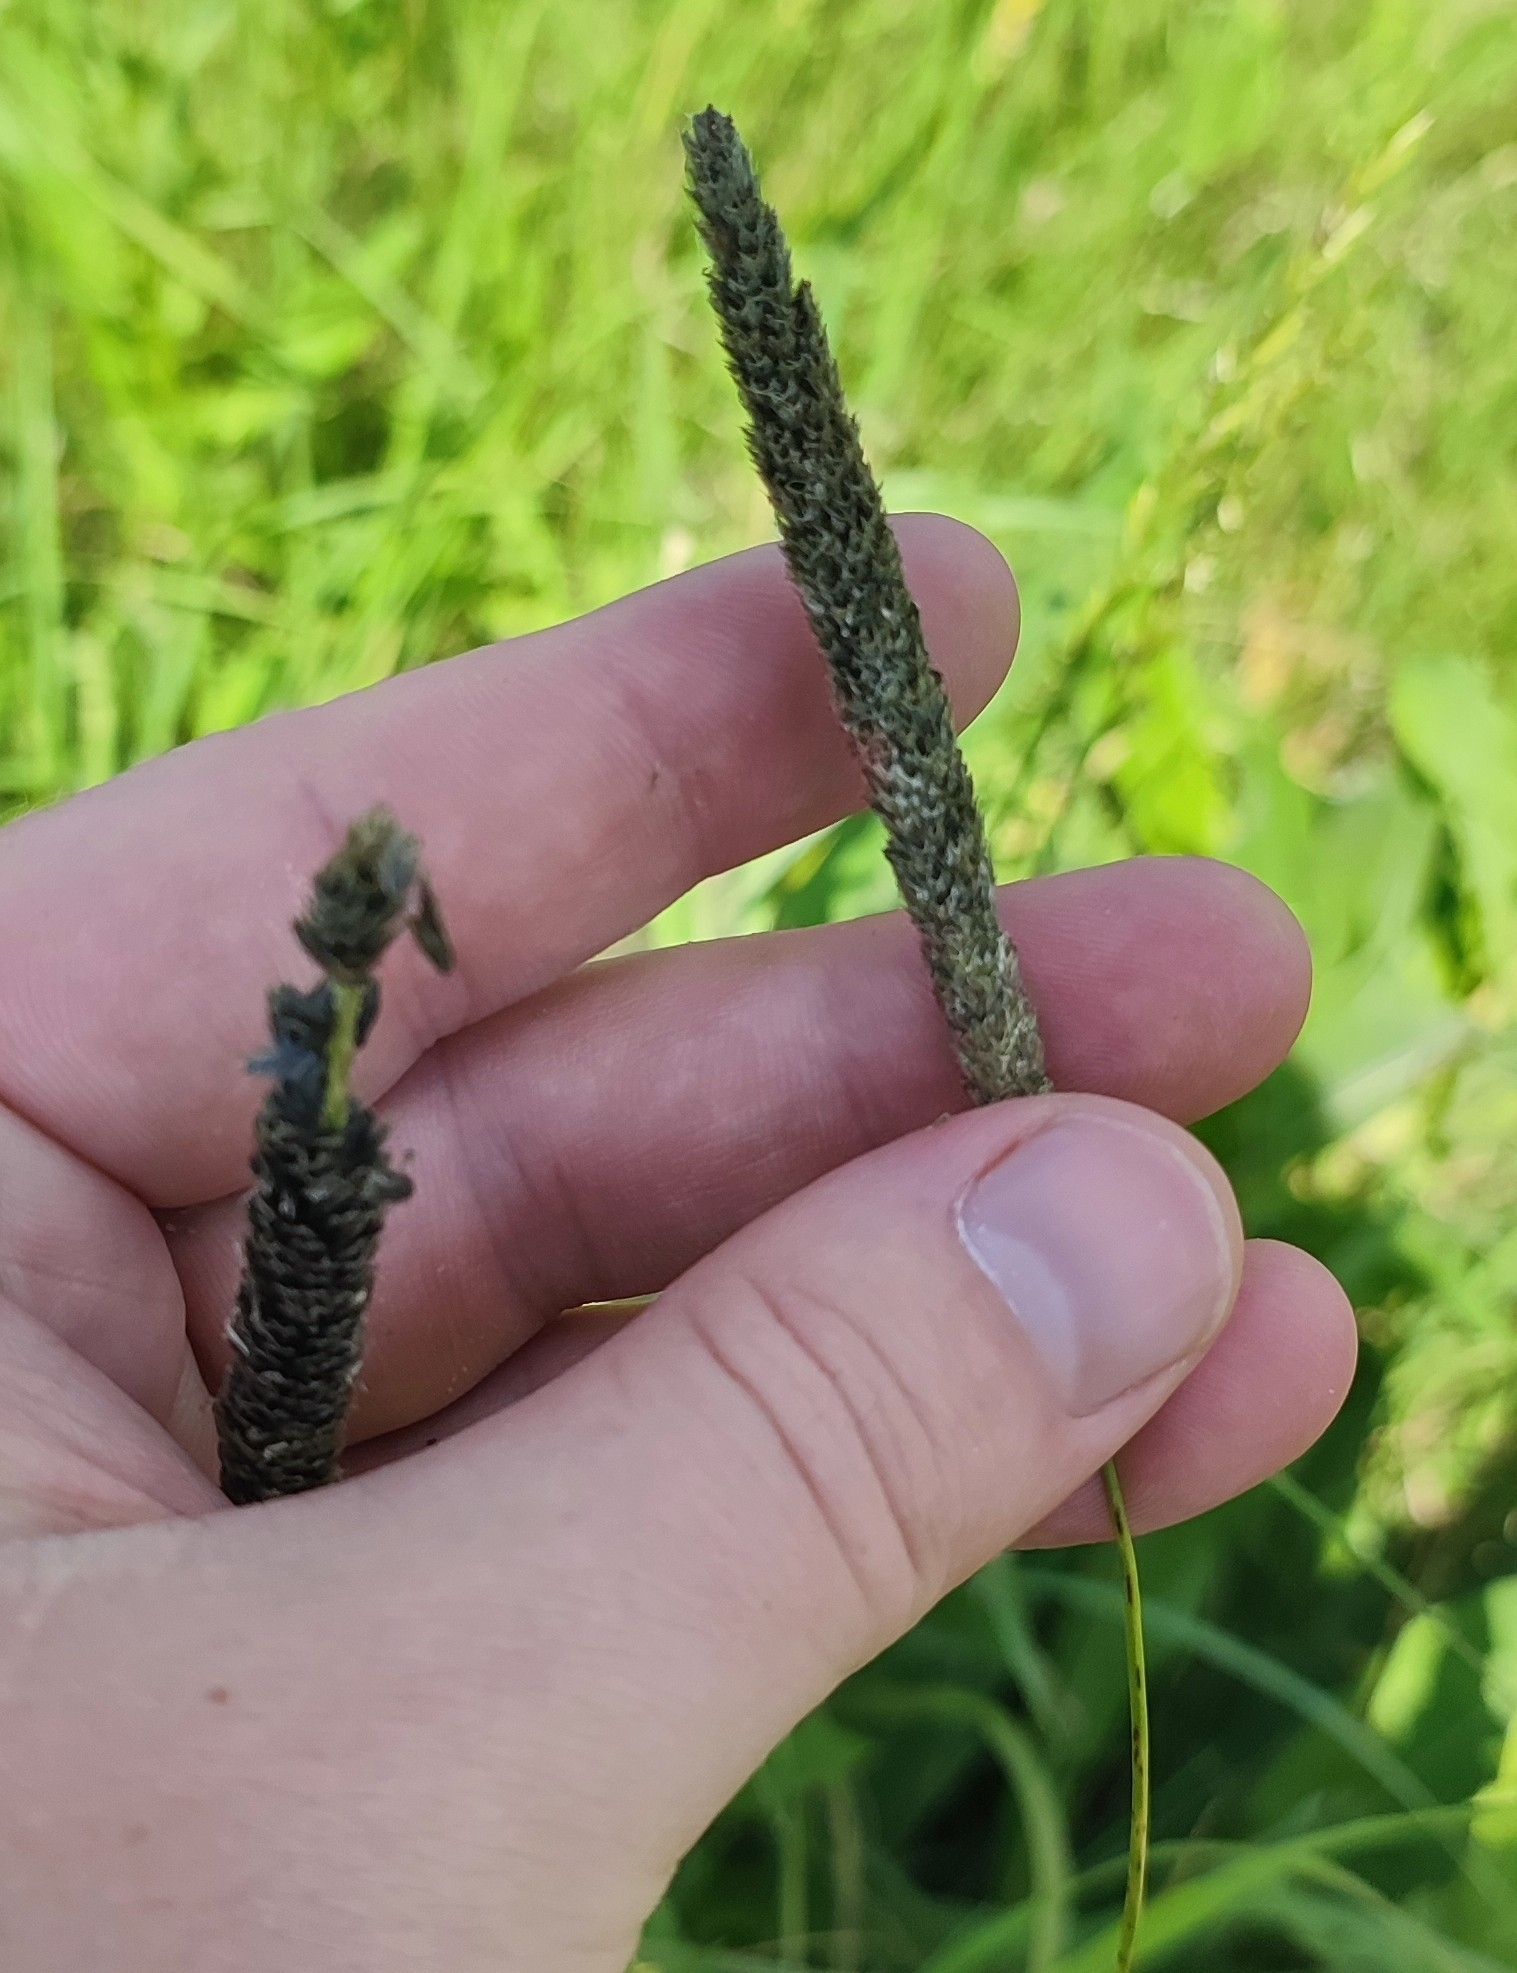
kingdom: Plantae
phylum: Tracheophyta
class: Liliopsida
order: Poales
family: Poaceae
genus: Alopecurus
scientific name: Alopecurus arundinaceus
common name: Creeping meadow foxtail
